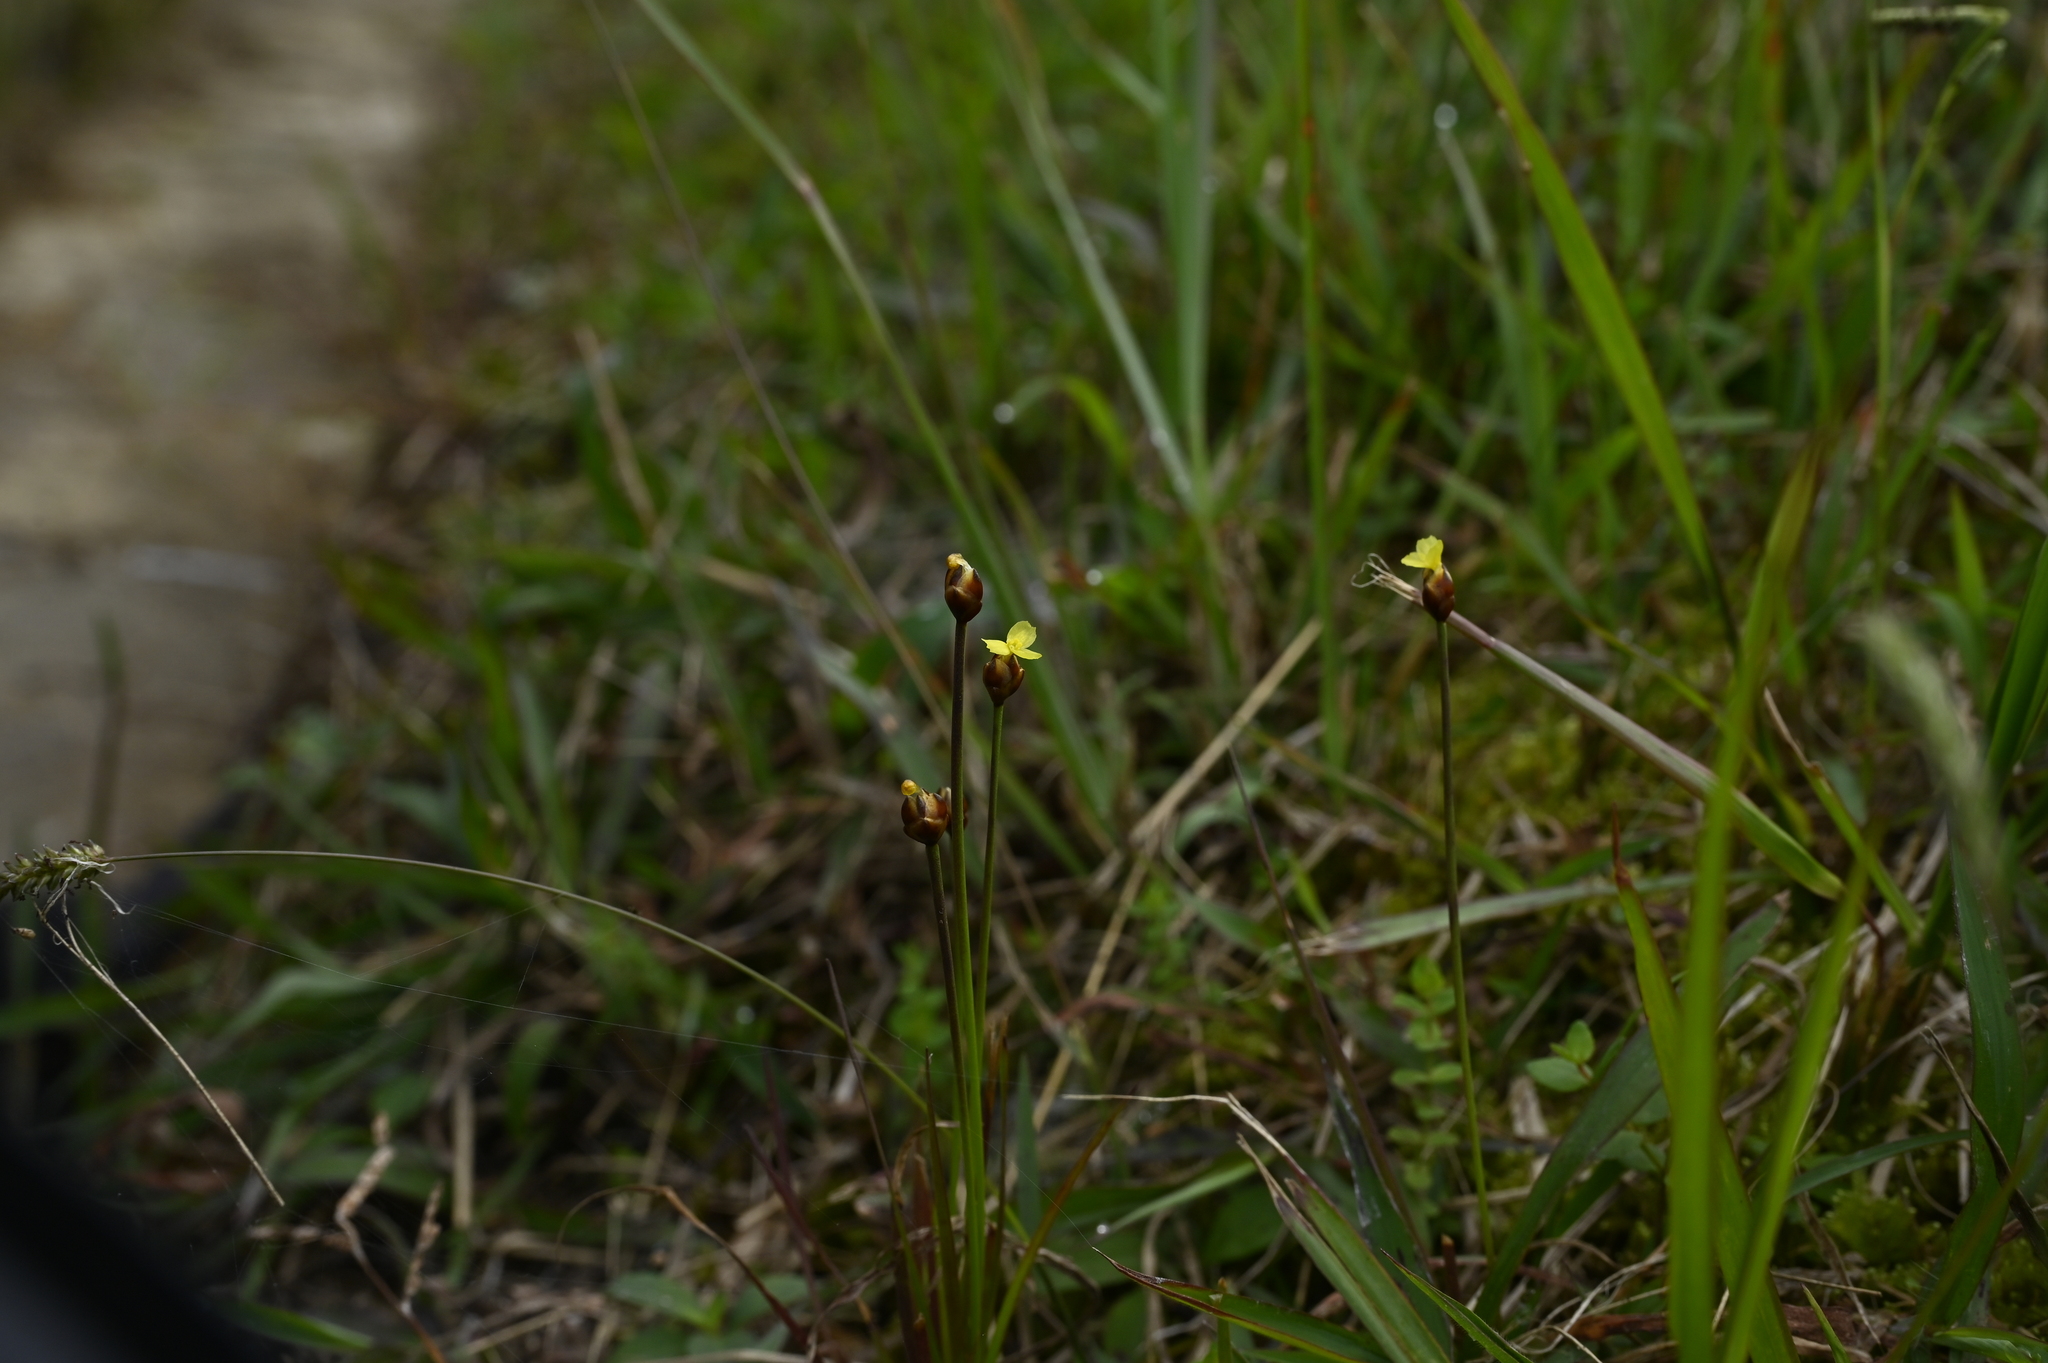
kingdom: Plantae
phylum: Tracheophyta
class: Liliopsida
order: Poales
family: Xyridaceae
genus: Xyris
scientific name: Xyris formosana
